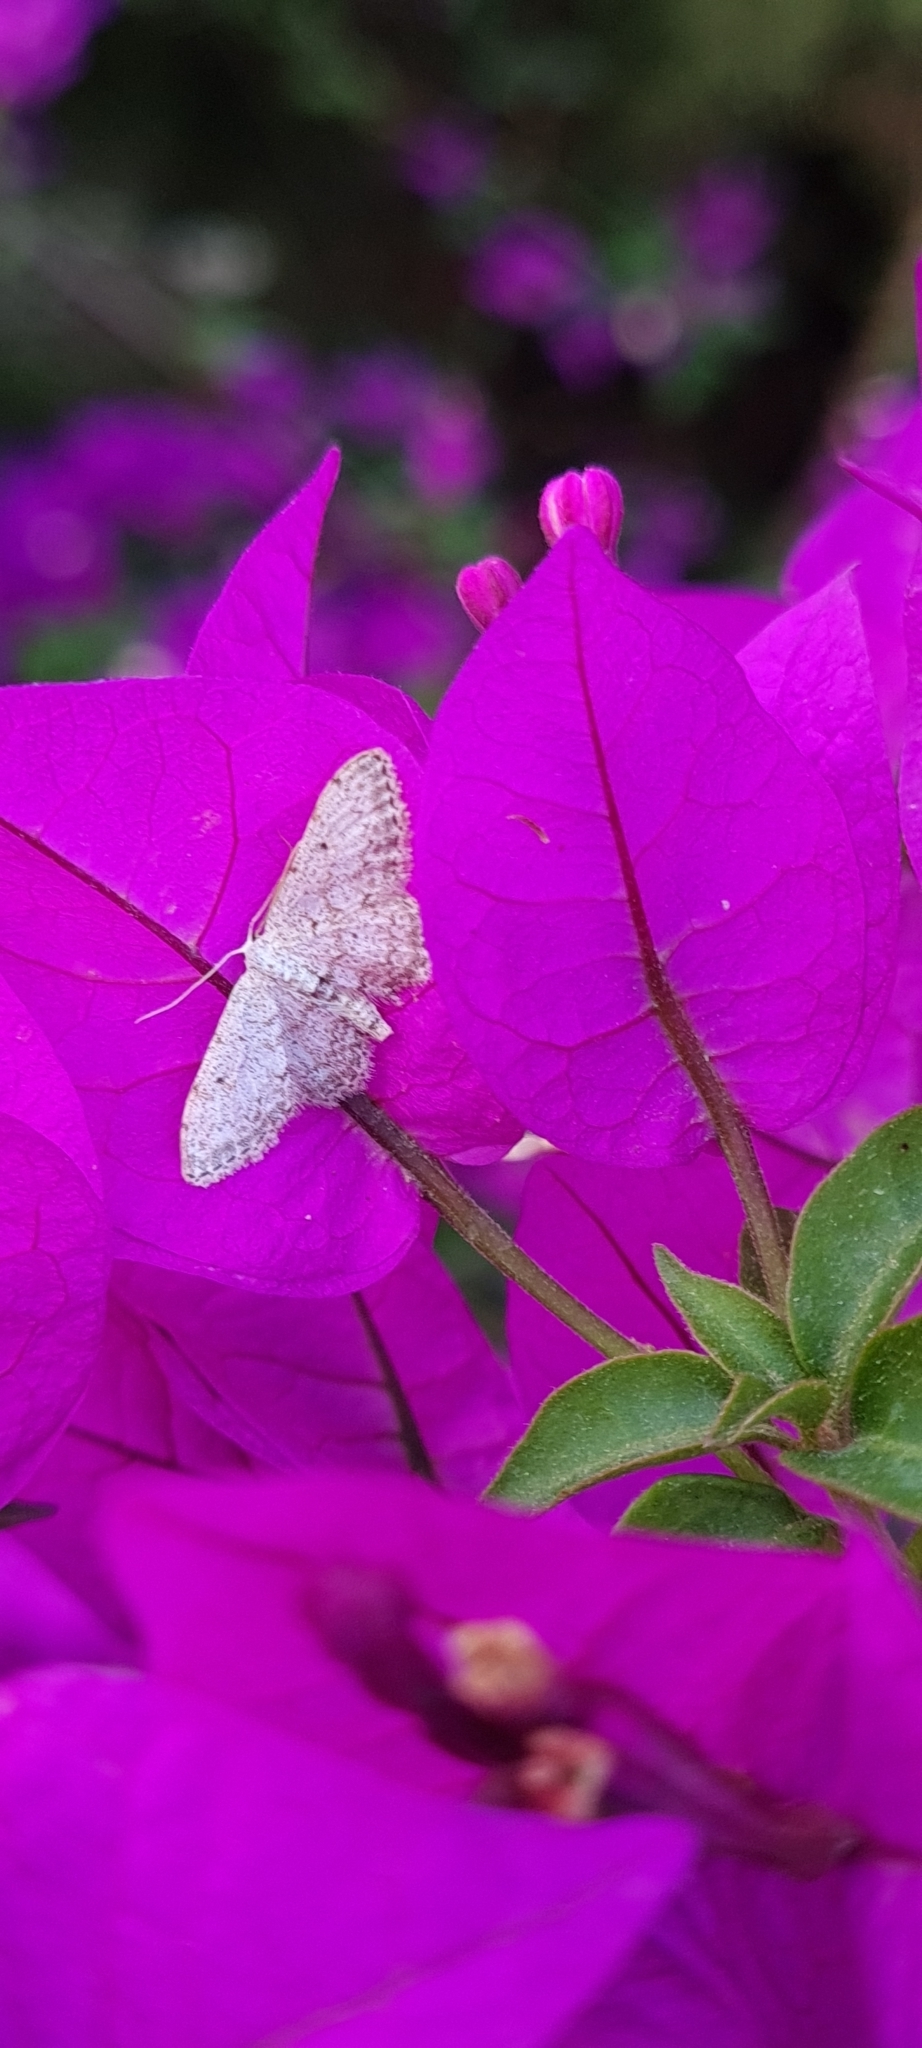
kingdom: Animalia
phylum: Arthropoda
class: Insecta
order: Lepidoptera
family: Geometridae
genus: Idaea
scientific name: Idaea incisaria
